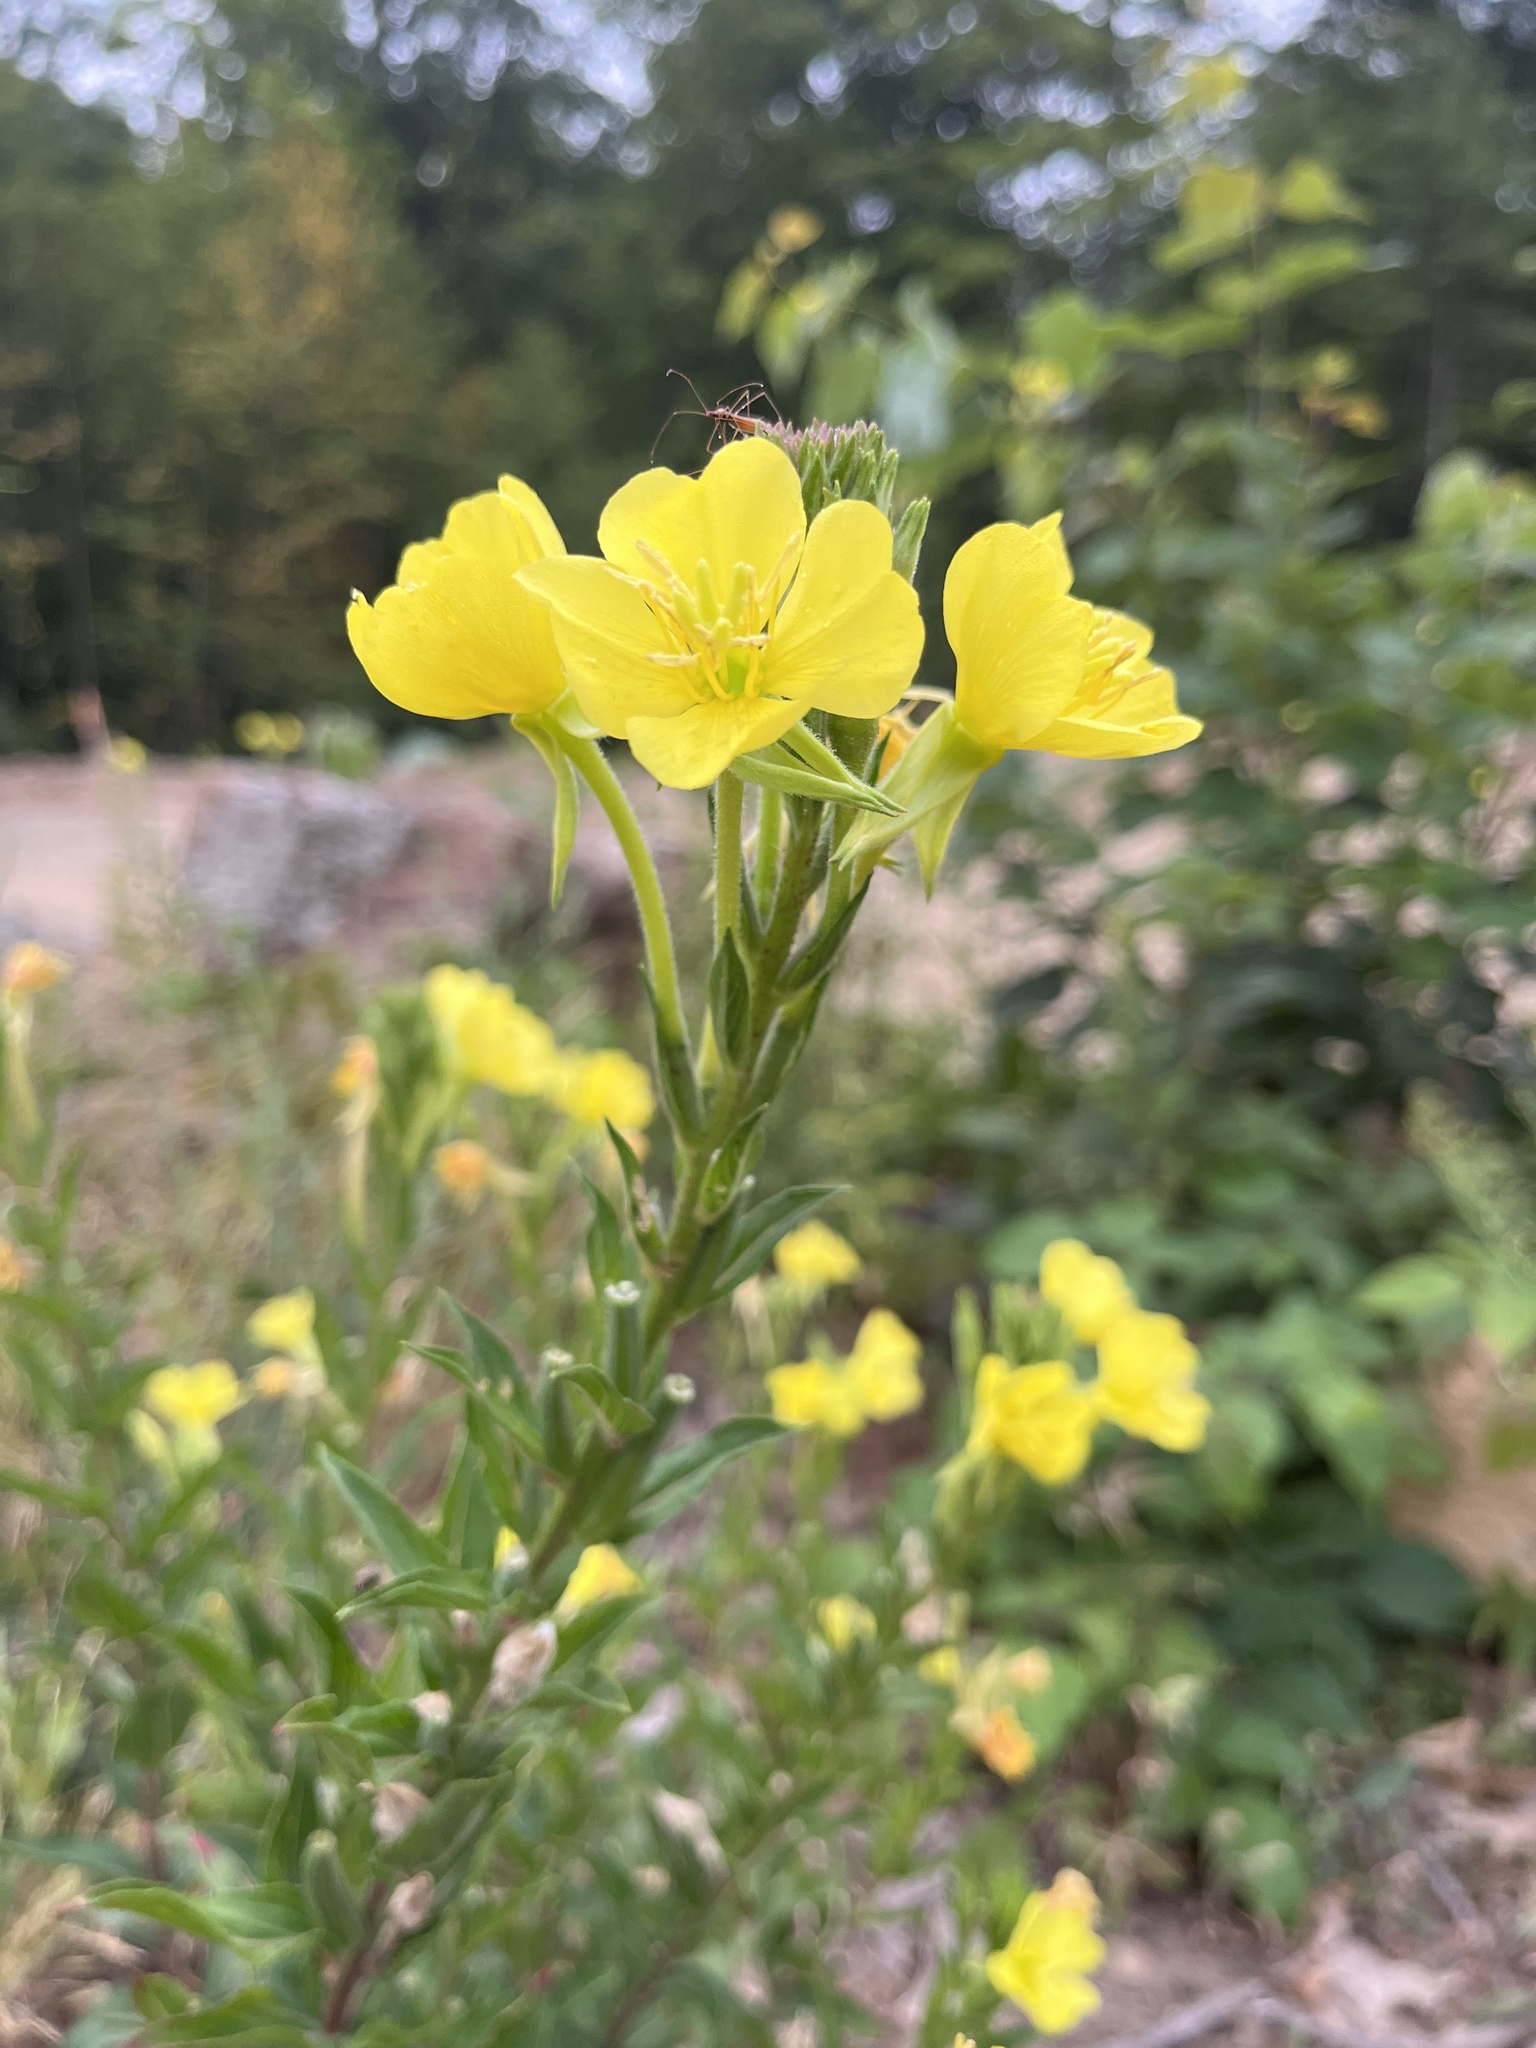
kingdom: Plantae
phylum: Tracheophyta
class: Magnoliopsida
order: Myrtales
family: Onagraceae
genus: Oenothera
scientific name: Oenothera biennis
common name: Common evening-primrose
